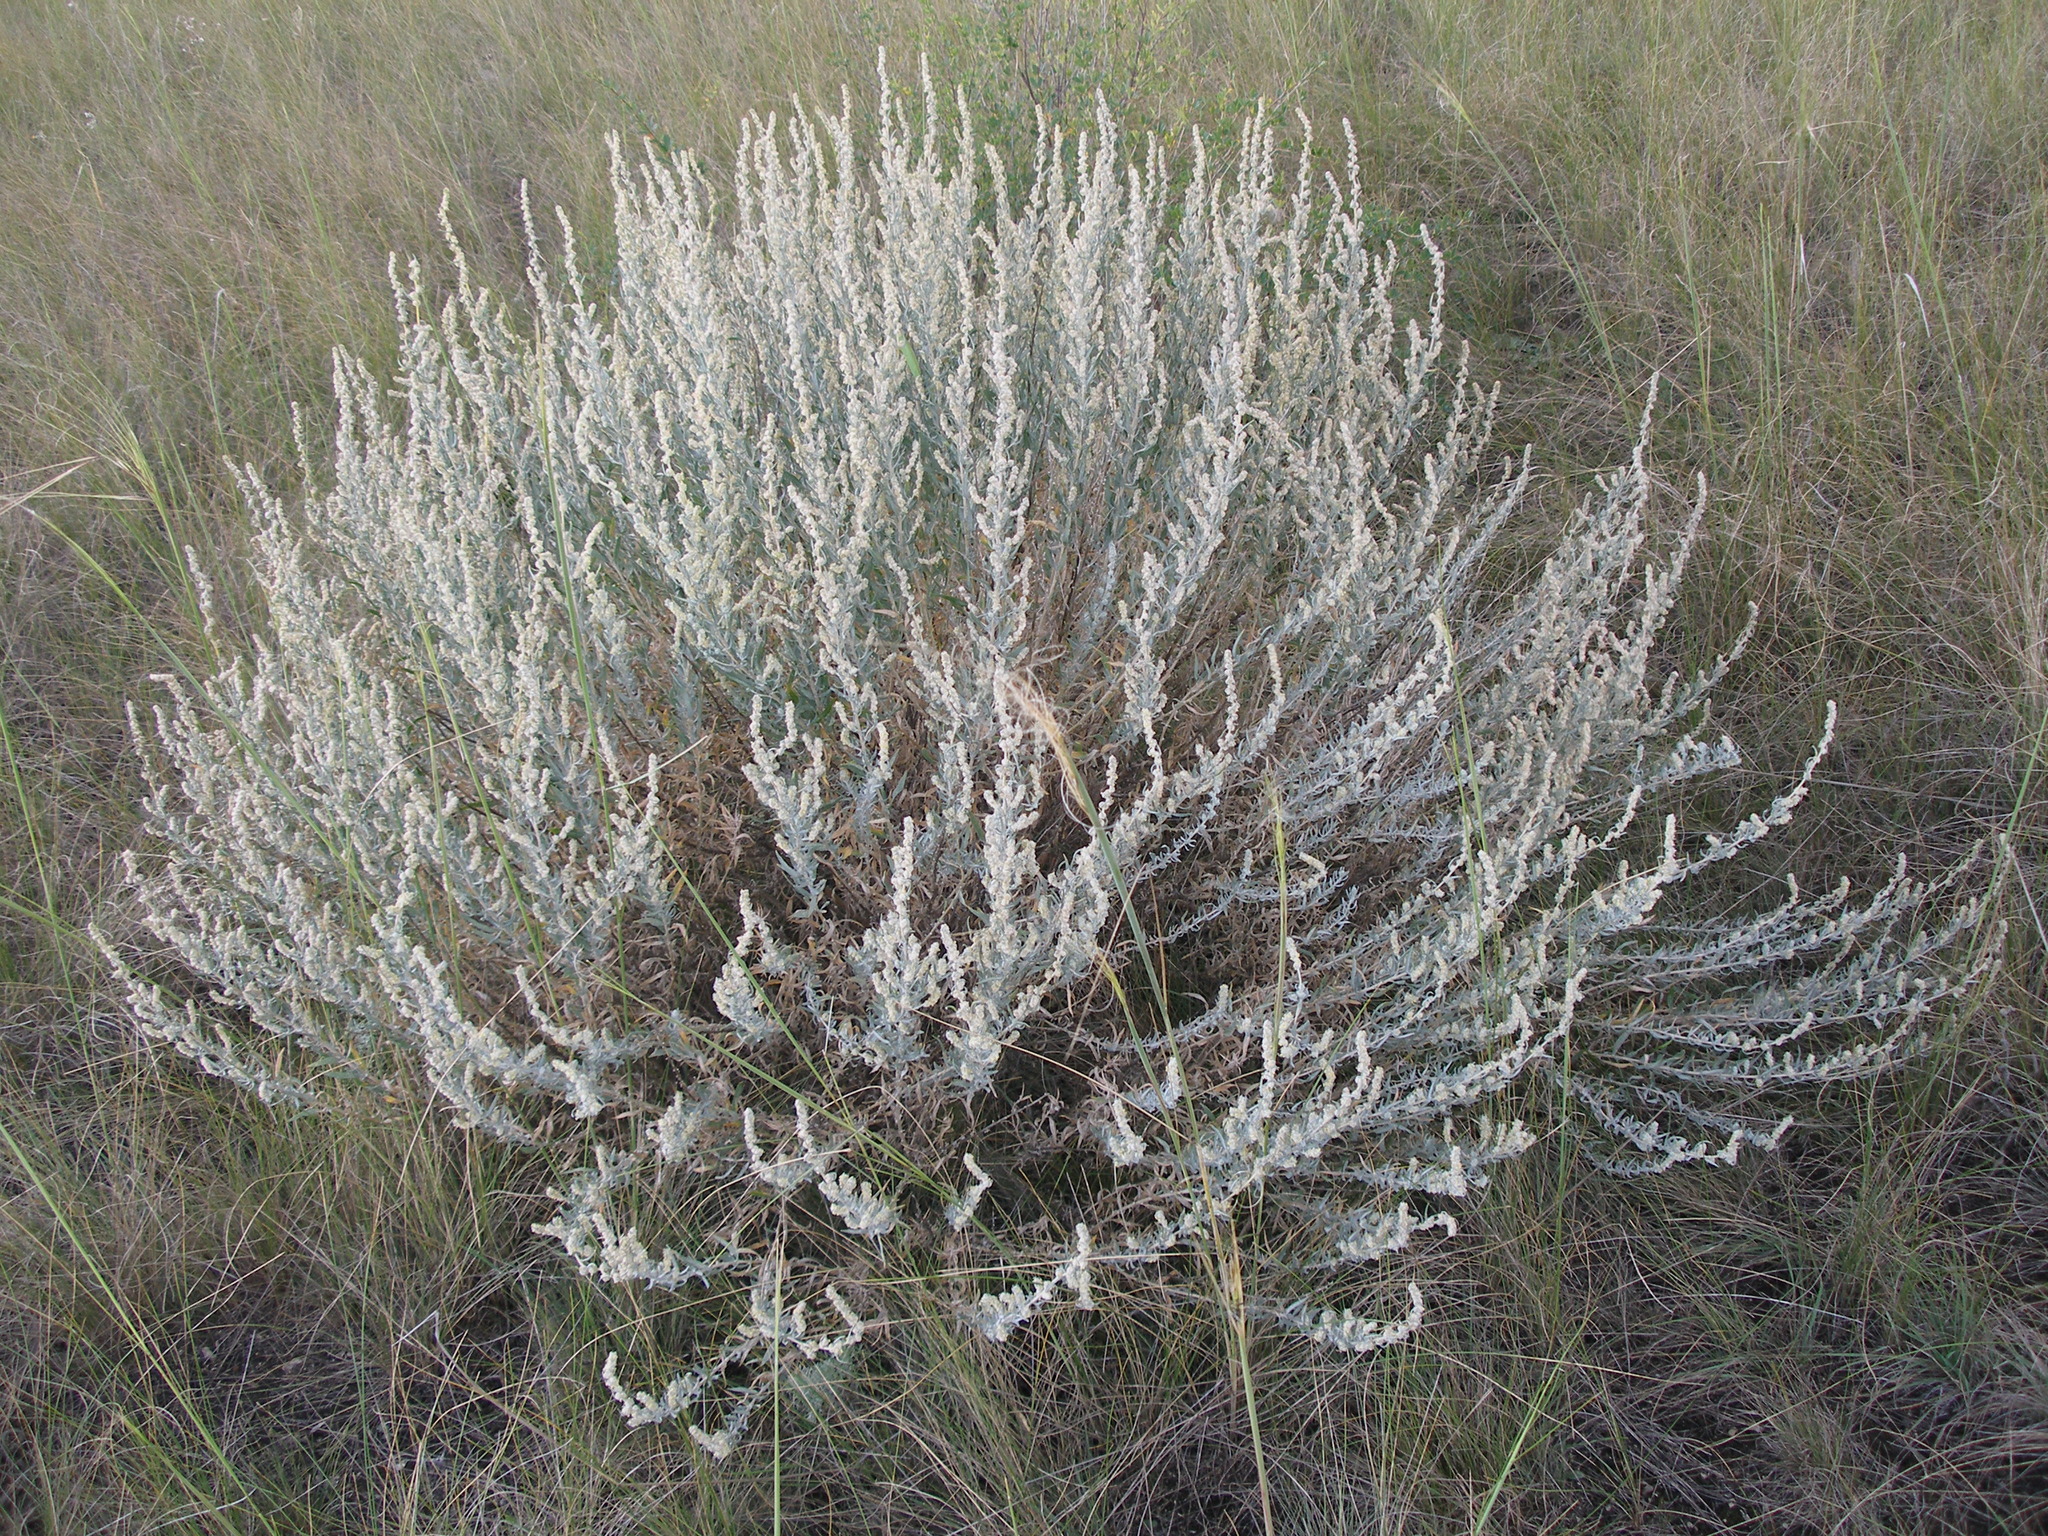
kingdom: Plantae
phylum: Tracheophyta
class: Magnoliopsida
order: Caryophyllales
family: Amaranthaceae
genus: Krascheninnikovia
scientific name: Krascheninnikovia ceratoides
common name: Pamirian winterfat
